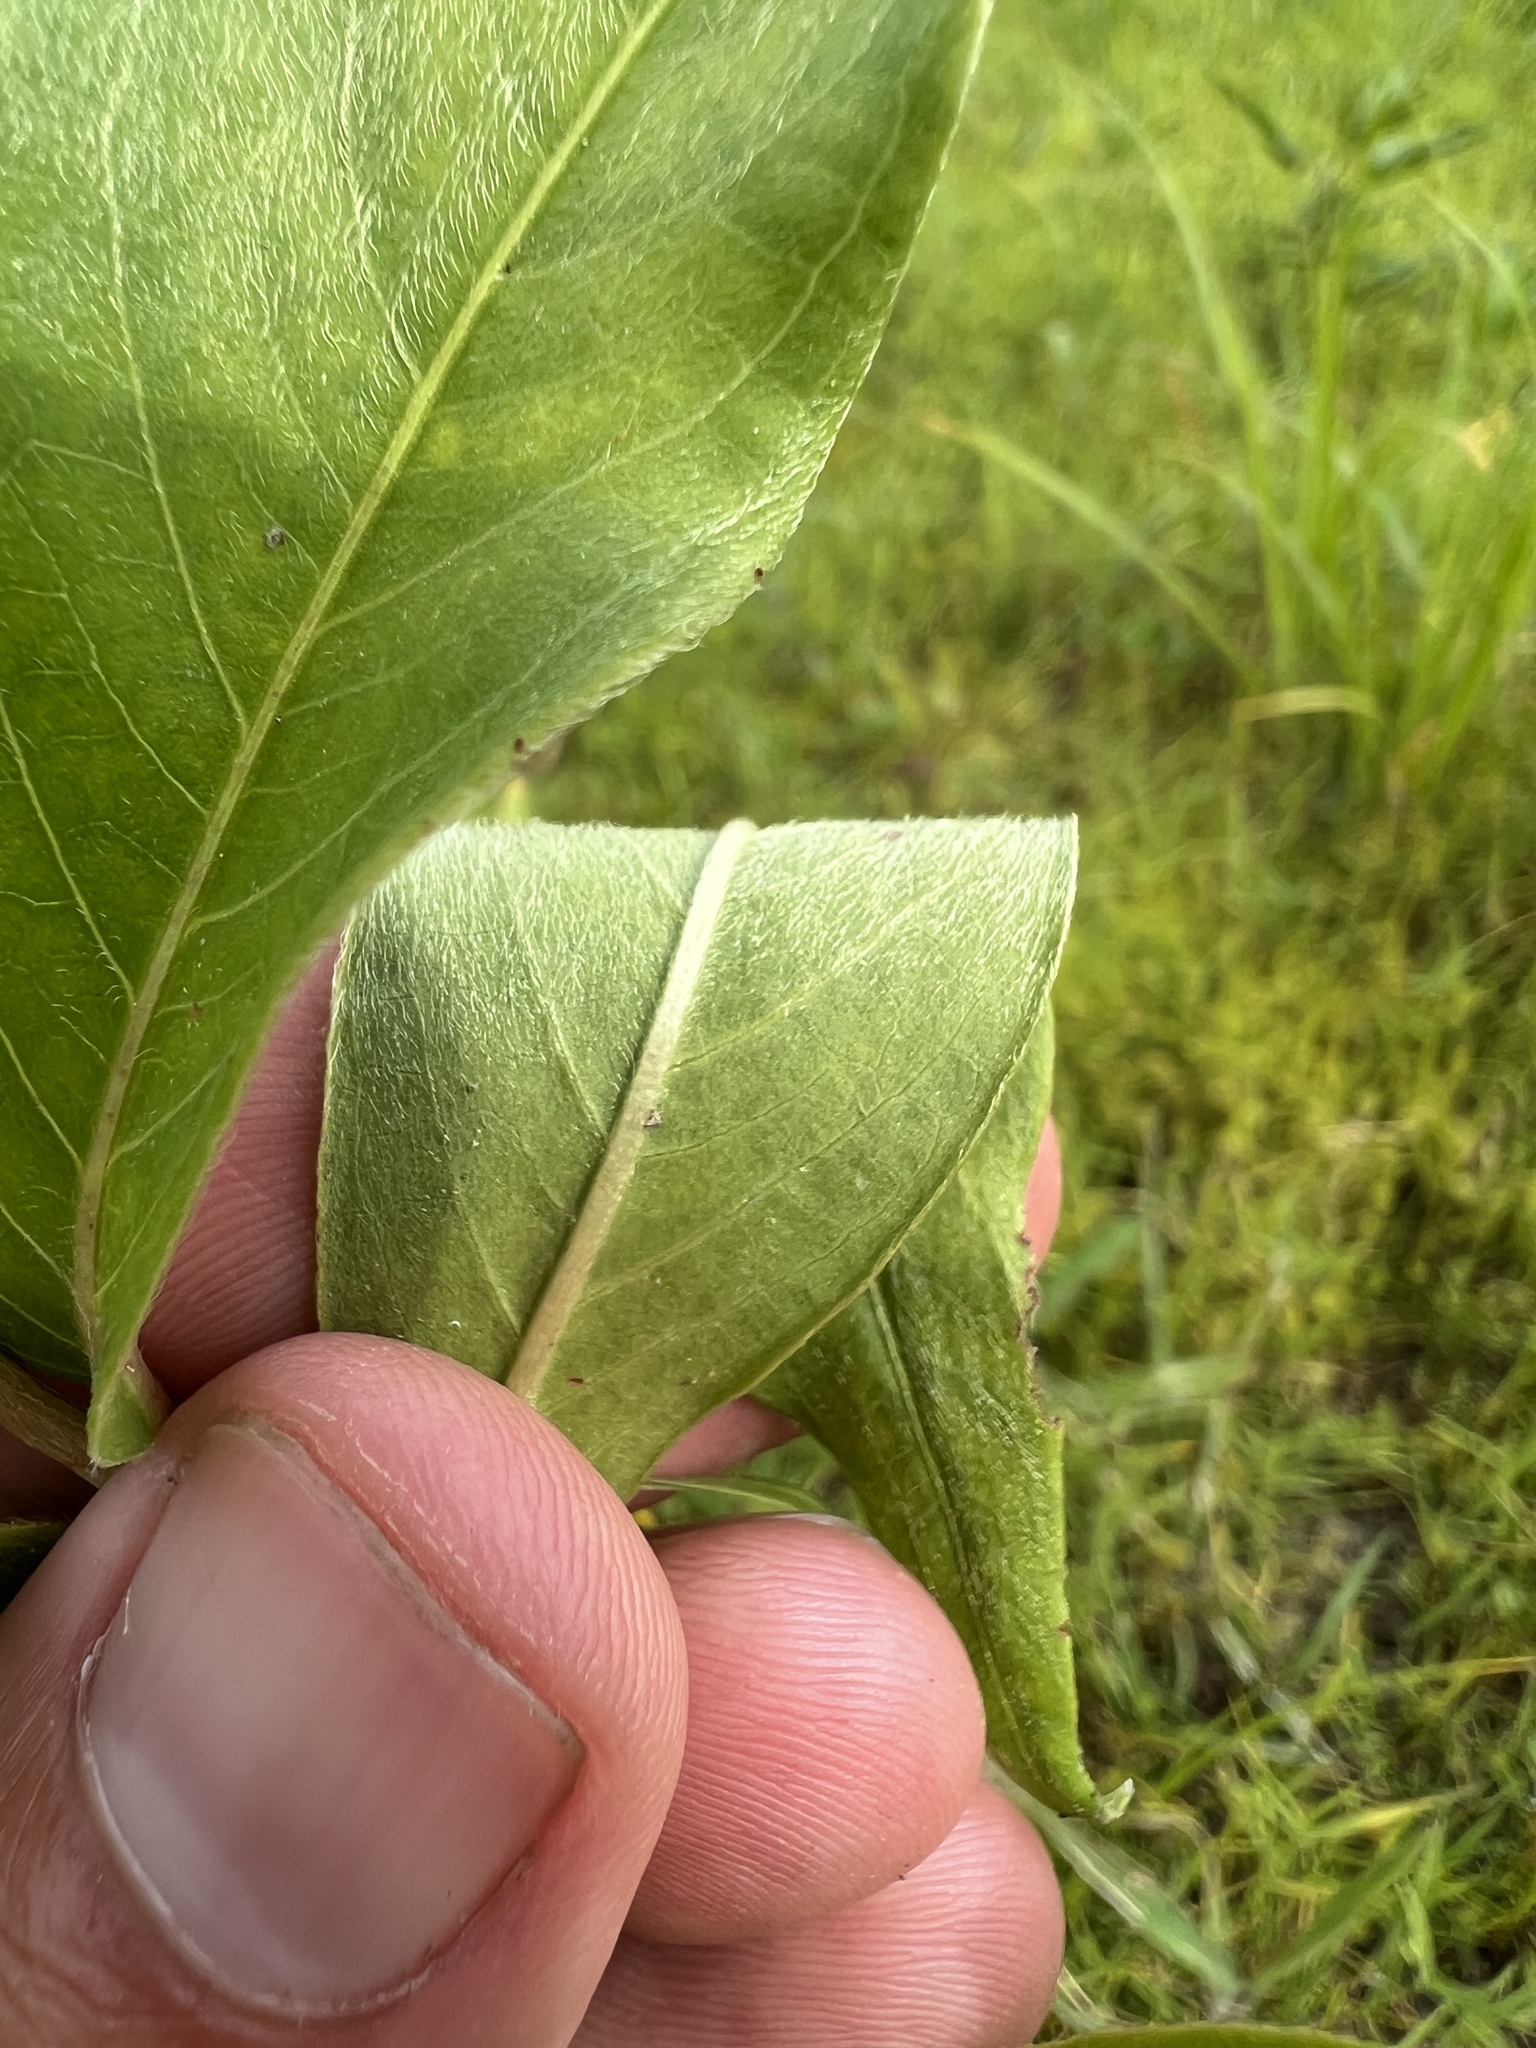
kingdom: Plantae
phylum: Tracheophyta
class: Magnoliopsida
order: Caryophyllales
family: Polygonaceae
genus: Persicaria
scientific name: Persicaria amphibia
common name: Amphibious bistort
